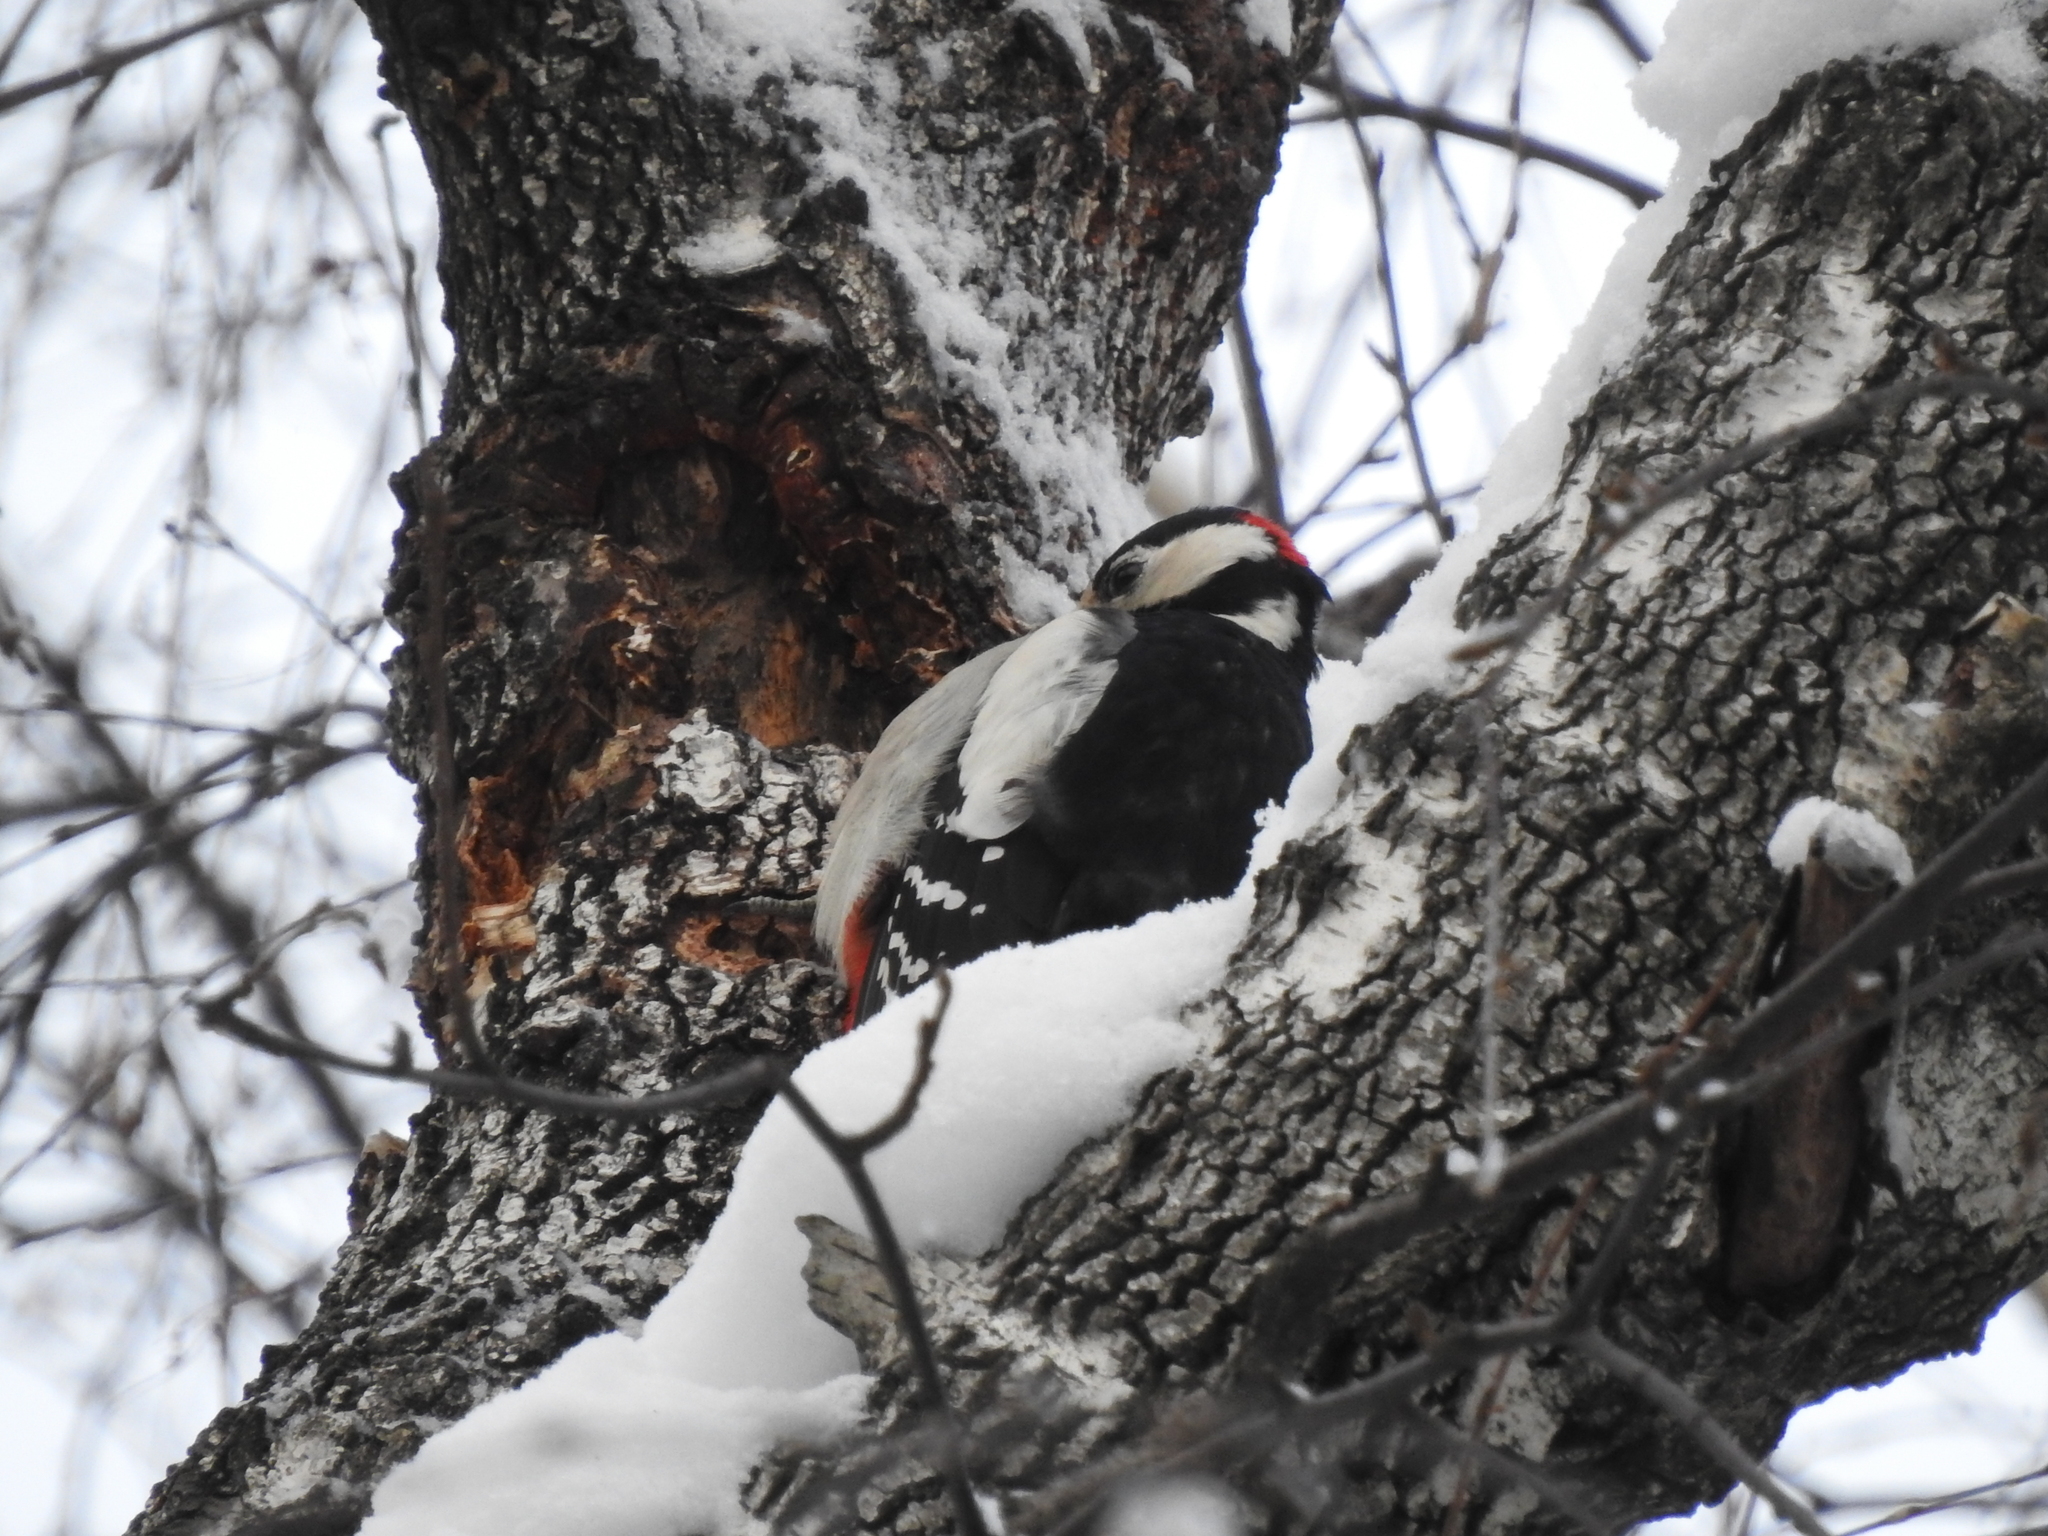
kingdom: Animalia
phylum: Chordata
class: Aves
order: Piciformes
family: Picidae
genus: Dendrocopos
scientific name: Dendrocopos major
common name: Great spotted woodpecker
